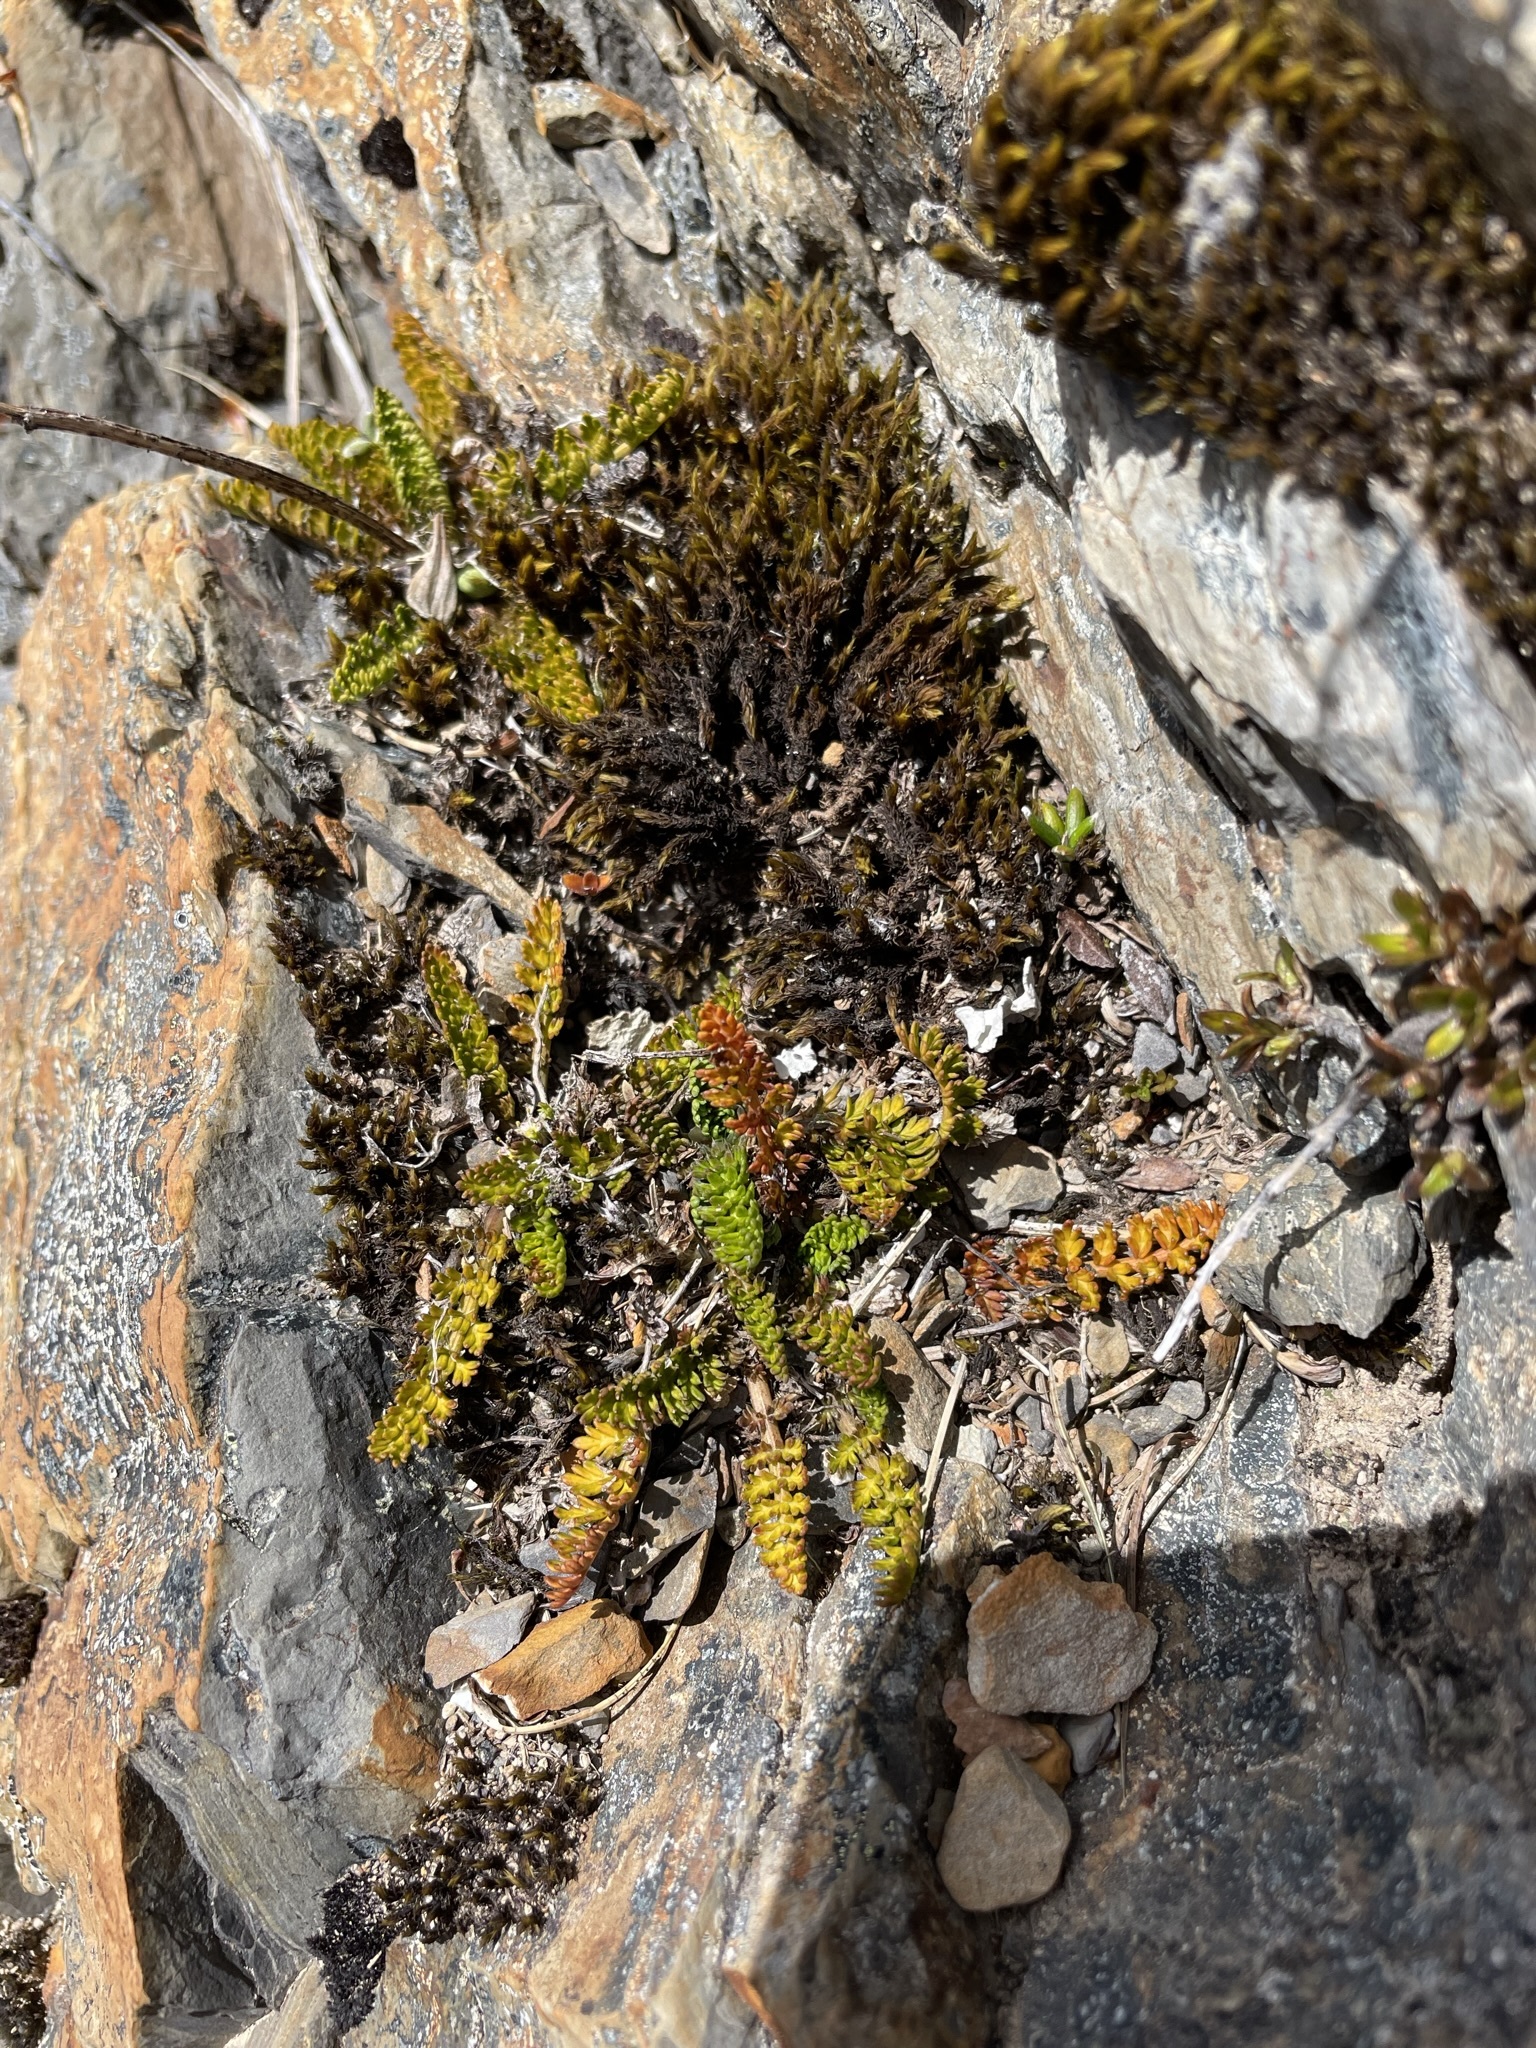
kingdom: Plantae
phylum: Tracheophyta
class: Magnoliopsida
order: Apiales
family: Apiaceae
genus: Anisotome
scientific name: Anisotome flexuosa
